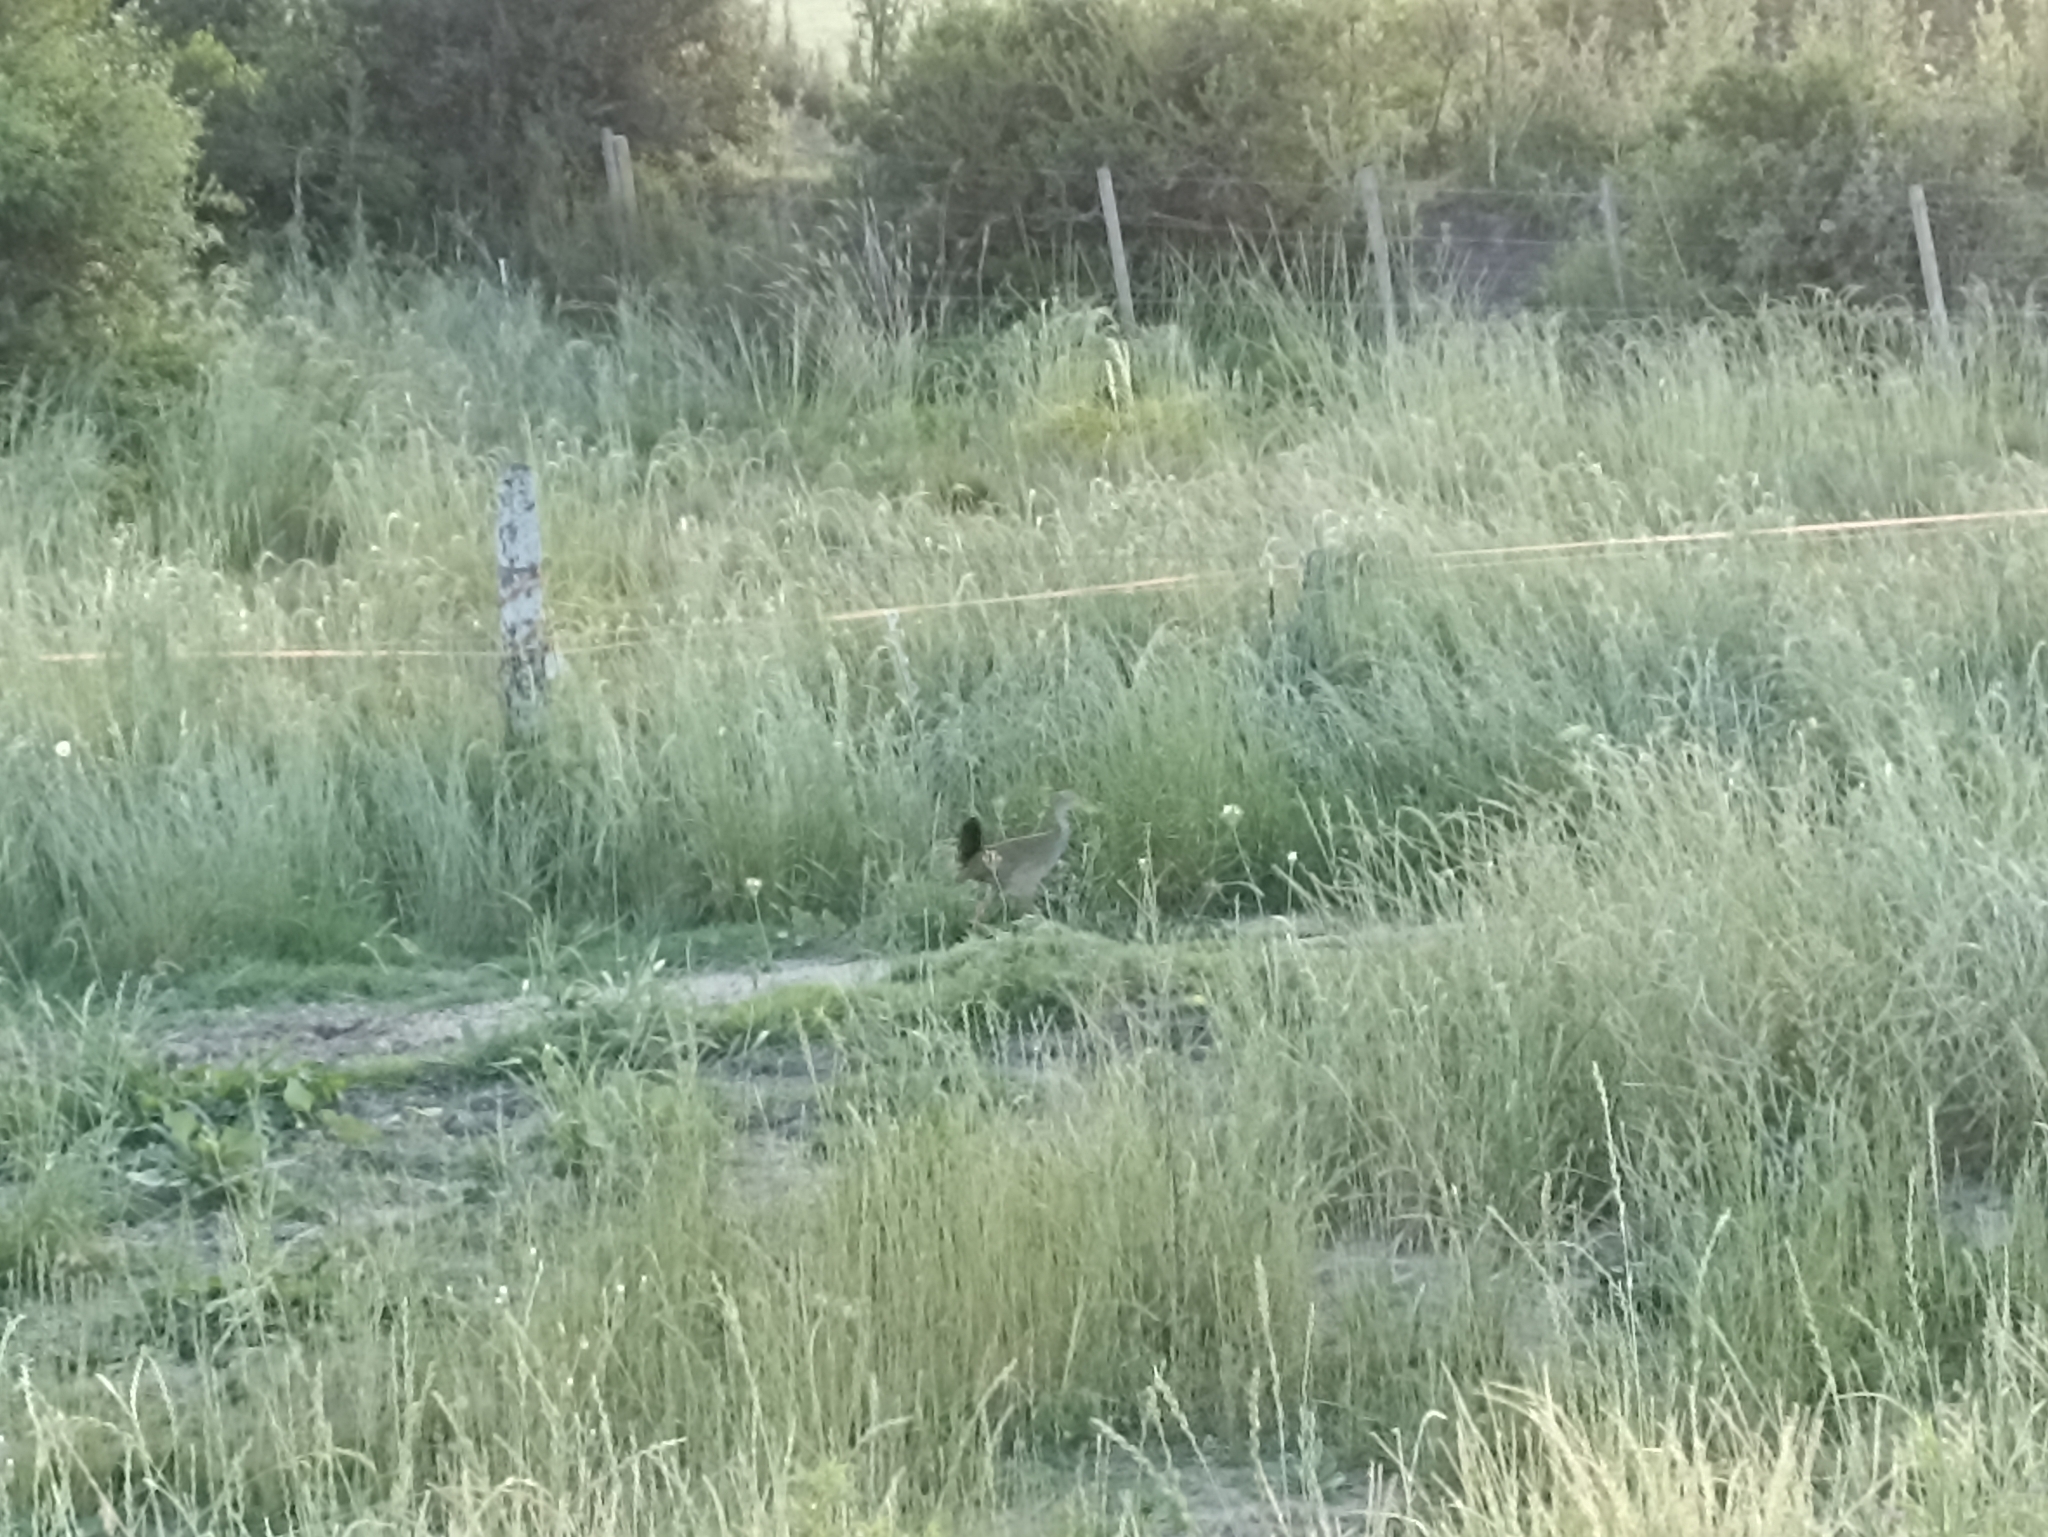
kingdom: Animalia
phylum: Chordata
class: Aves
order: Gruiformes
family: Rallidae
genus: Aramides
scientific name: Aramides ypecaha
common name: Giant wood rail
